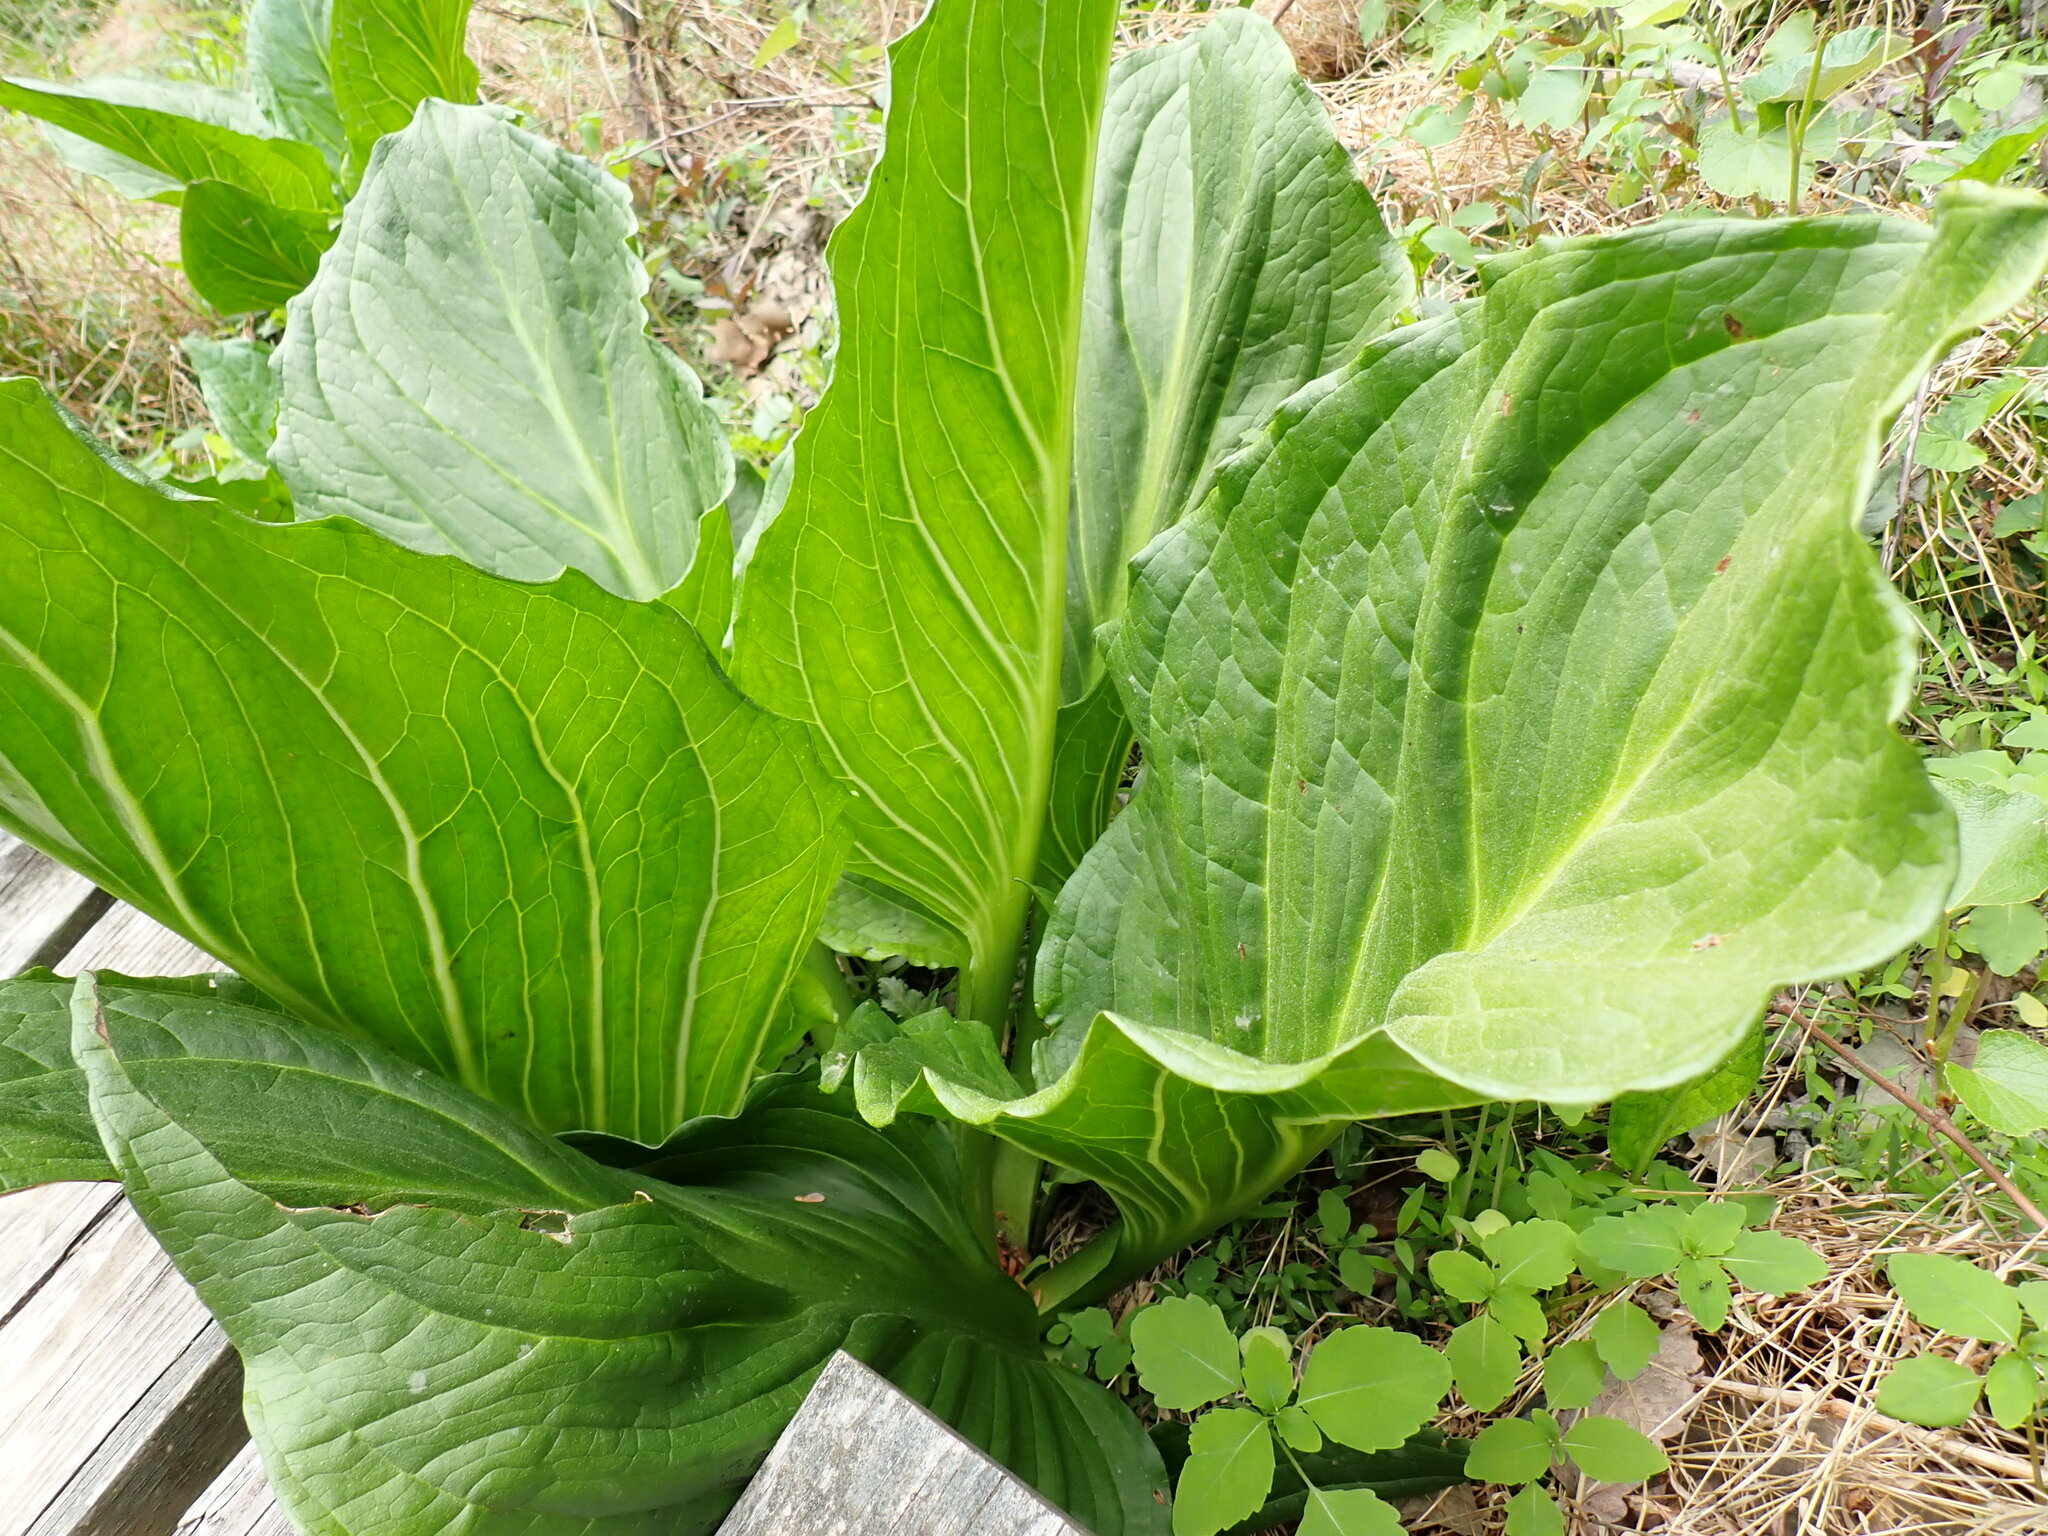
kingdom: Plantae
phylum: Tracheophyta
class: Liliopsida
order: Alismatales
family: Araceae
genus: Symplocarpus
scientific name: Symplocarpus foetidus
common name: Eastern skunk cabbage
